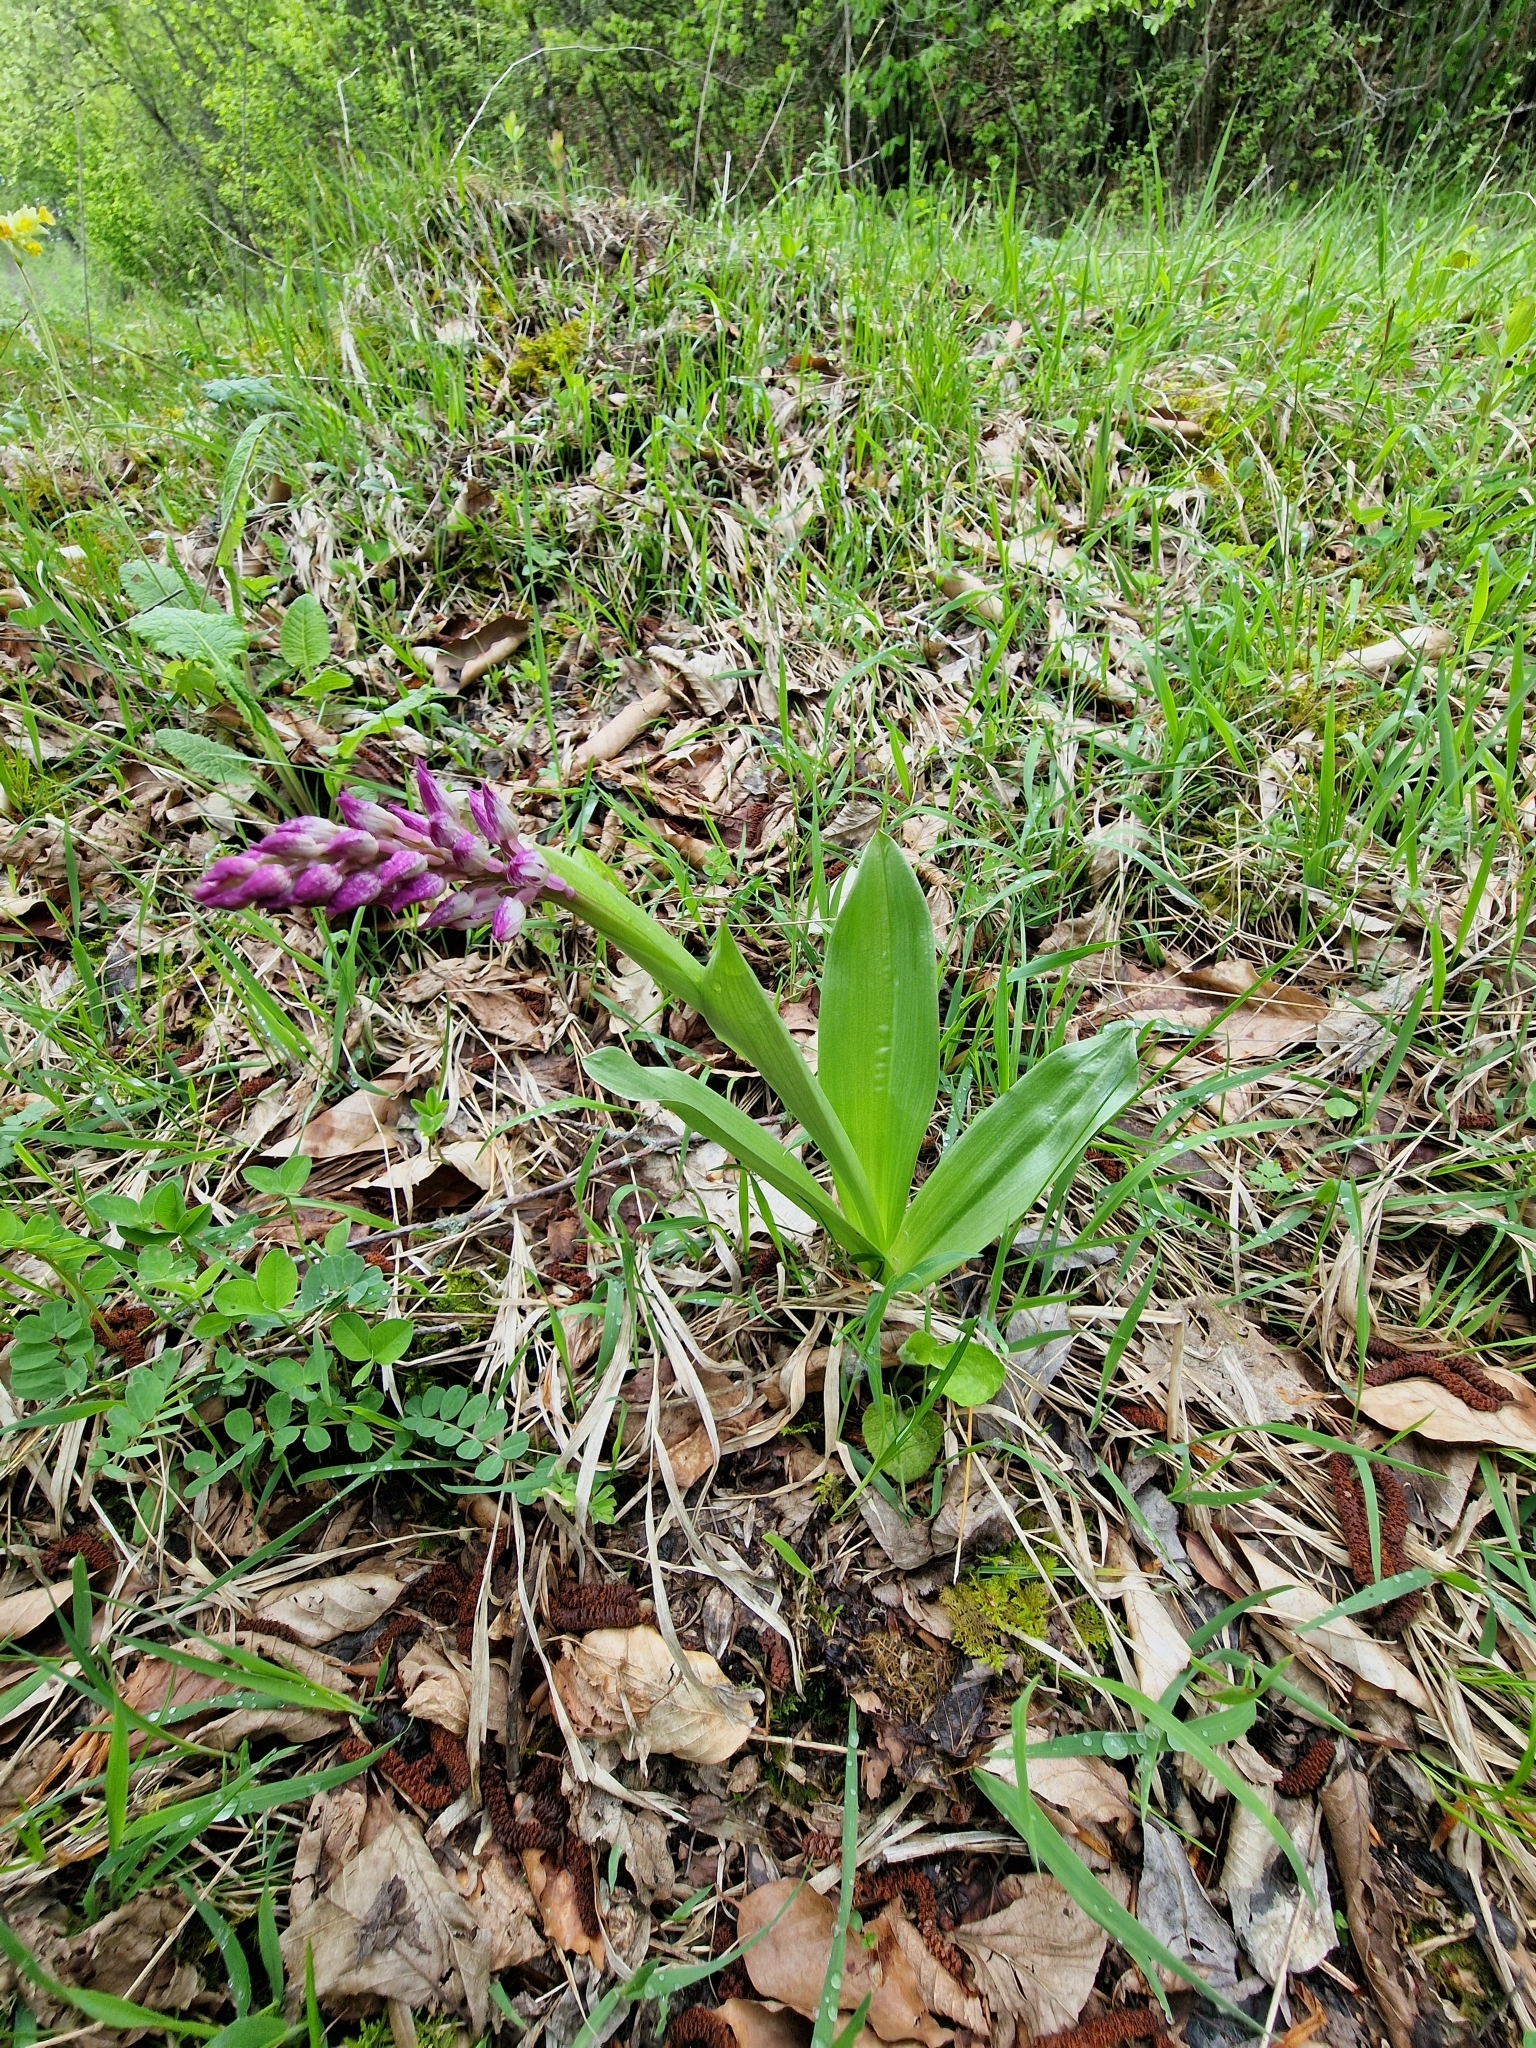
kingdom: Plantae
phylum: Tracheophyta
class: Liliopsida
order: Asparagales
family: Orchidaceae
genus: Orchis
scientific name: Orchis purpurea
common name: Lady orchid
